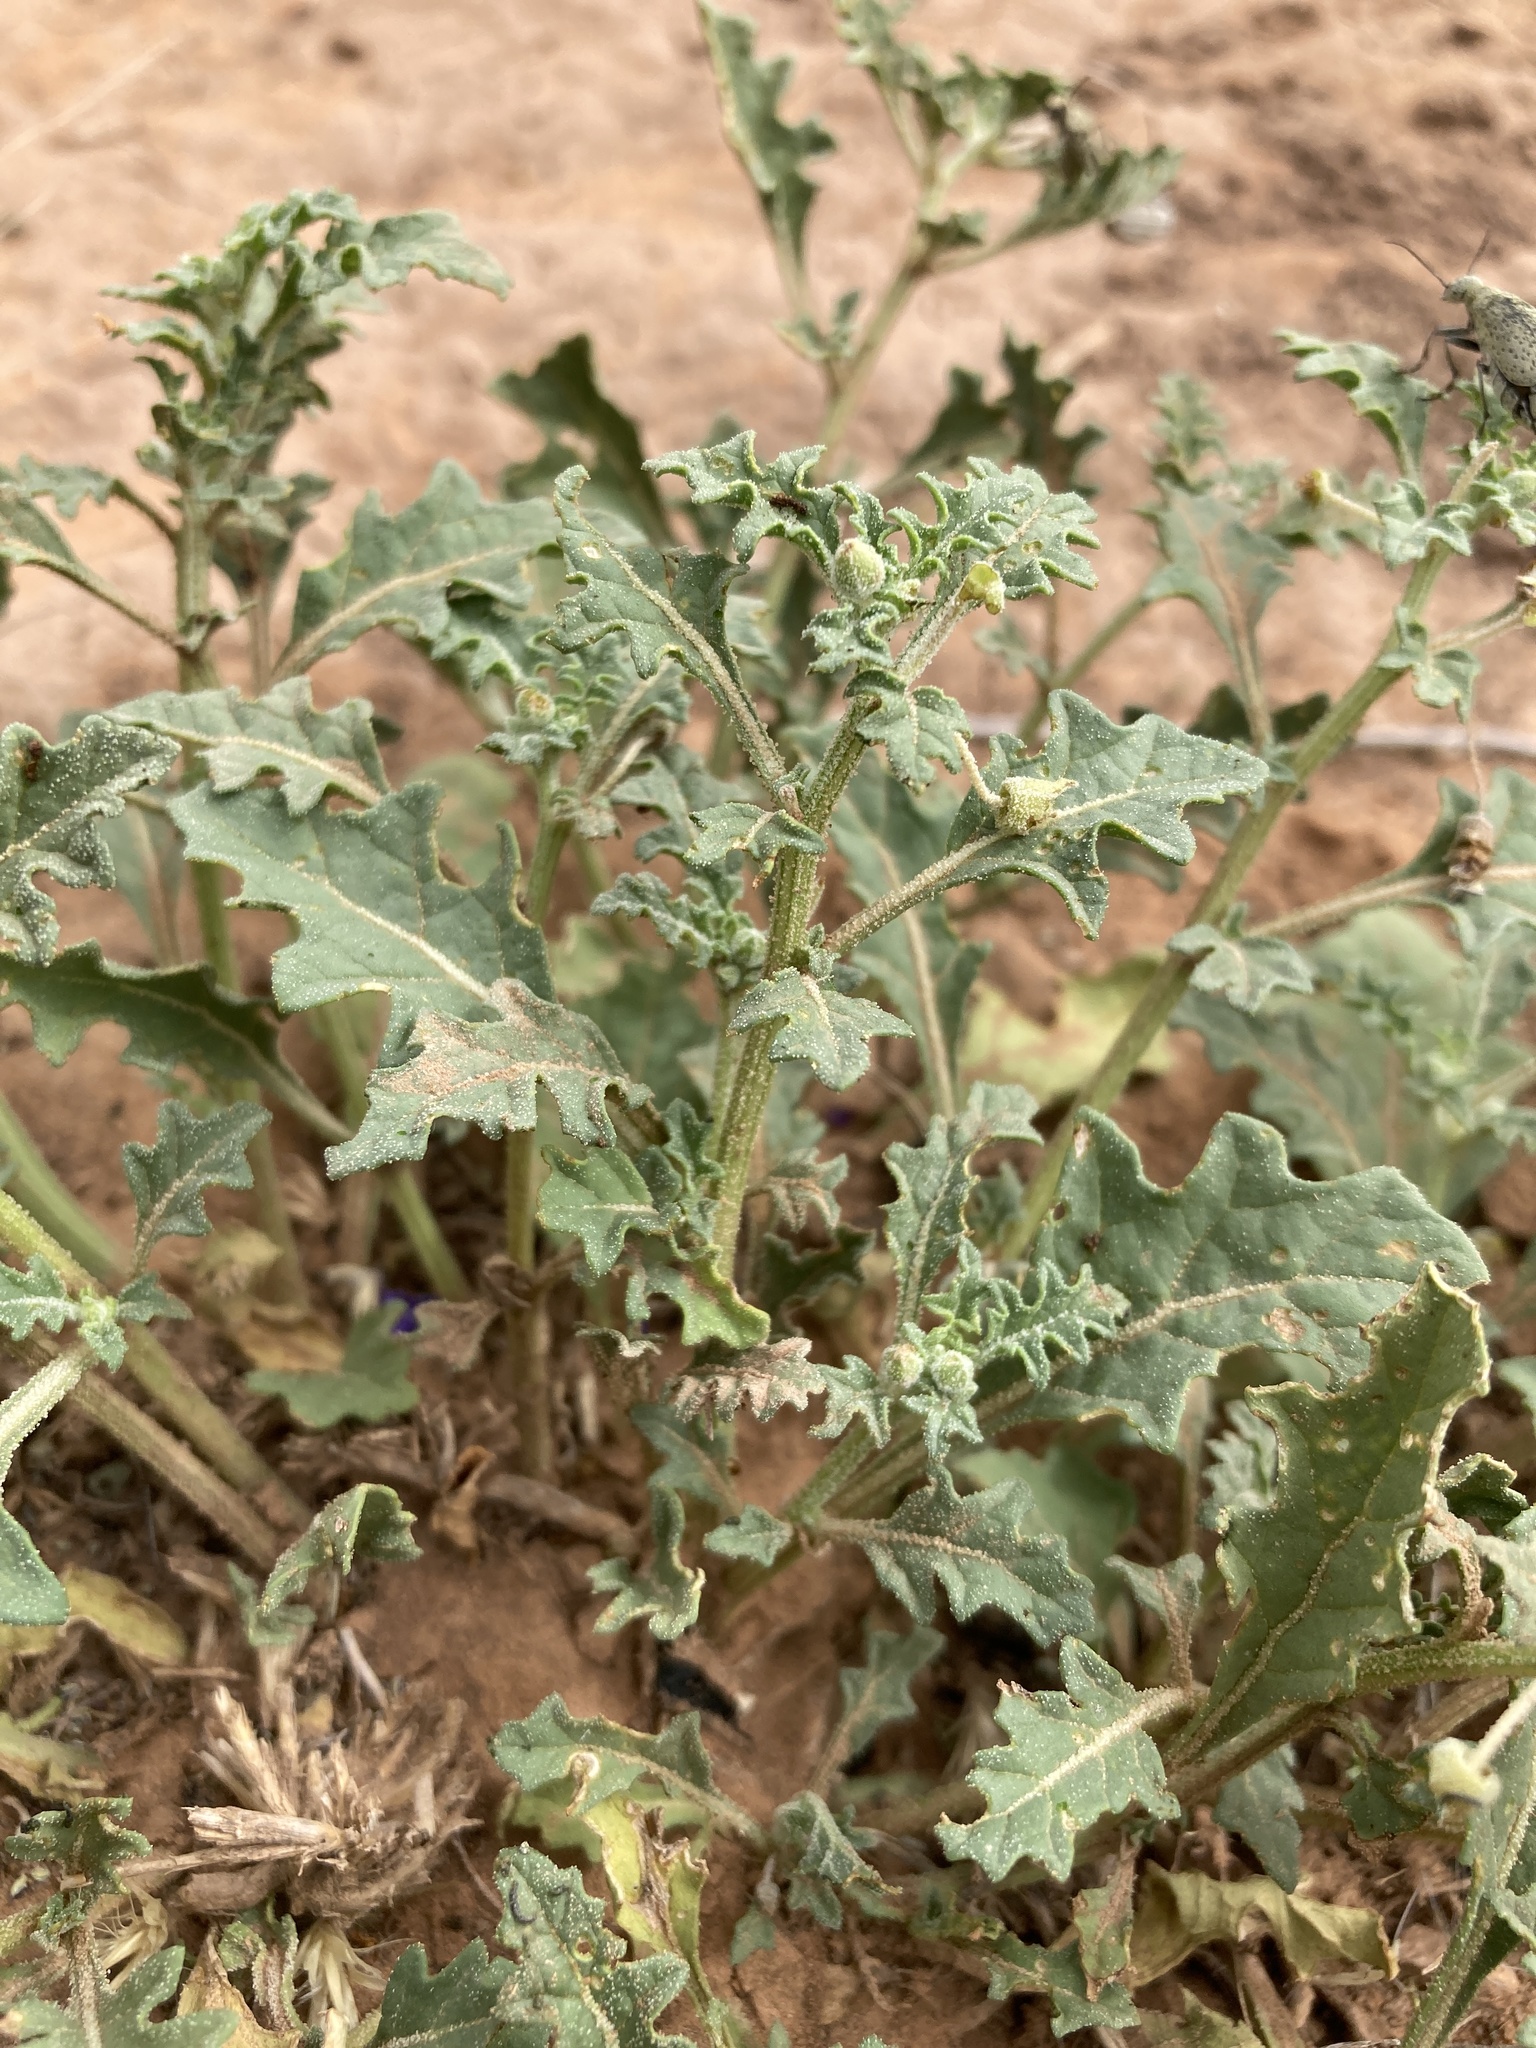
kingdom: Plantae
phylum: Tracheophyta
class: Magnoliopsida
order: Solanales
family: Solanaceae
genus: Quincula
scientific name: Quincula lobata
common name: Purple-ground-cherry
